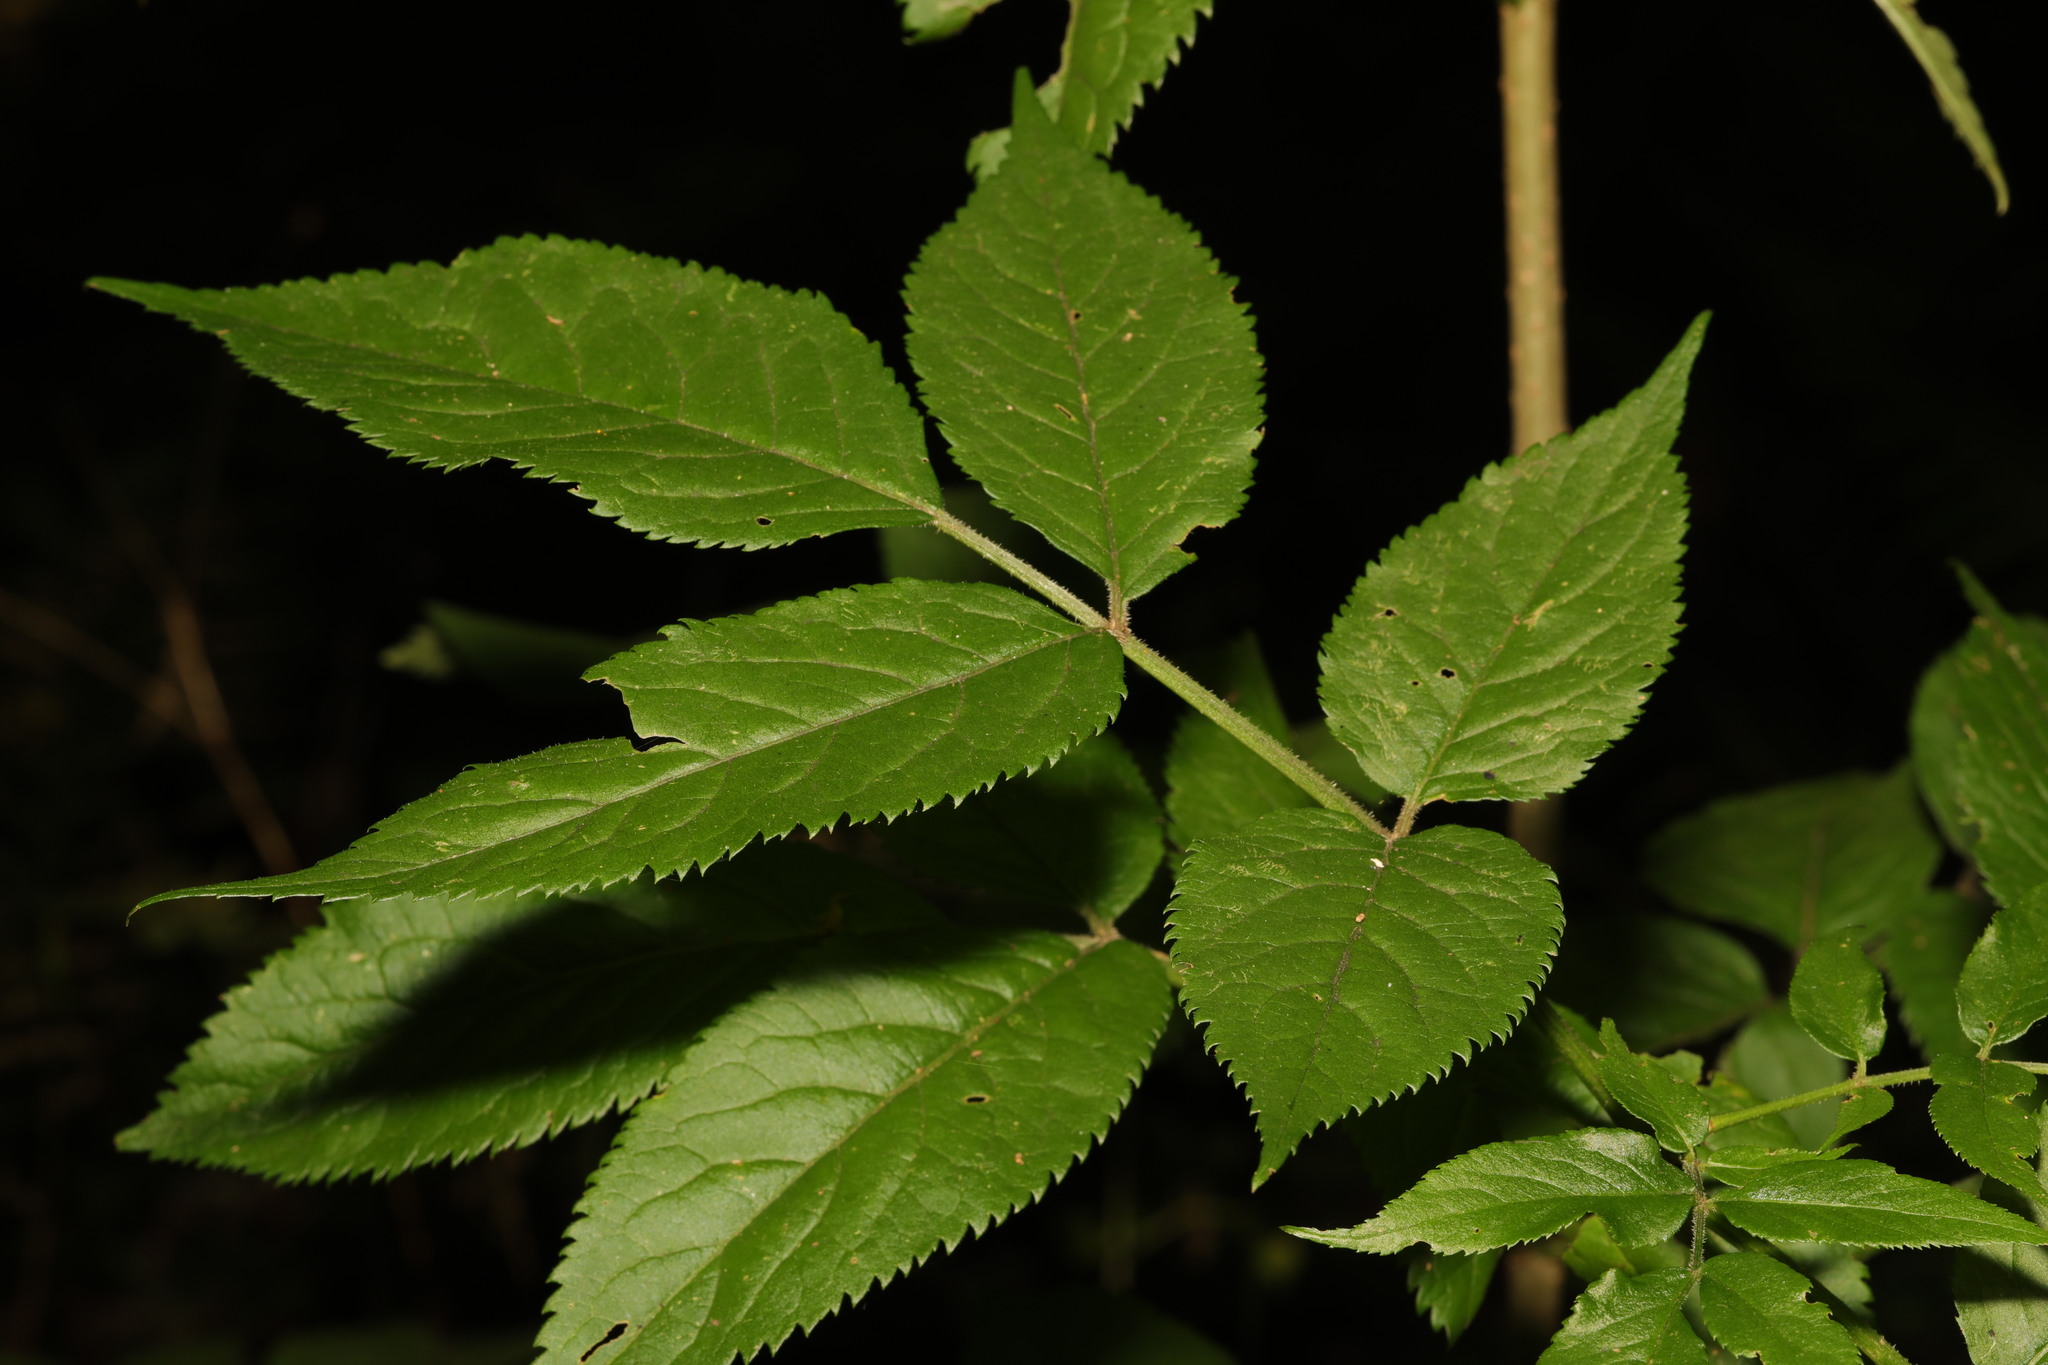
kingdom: Plantae
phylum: Tracheophyta
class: Magnoliopsida
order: Dipsacales
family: Viburnaceae
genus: Sambucus
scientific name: Sambucus nigra
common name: Elder
